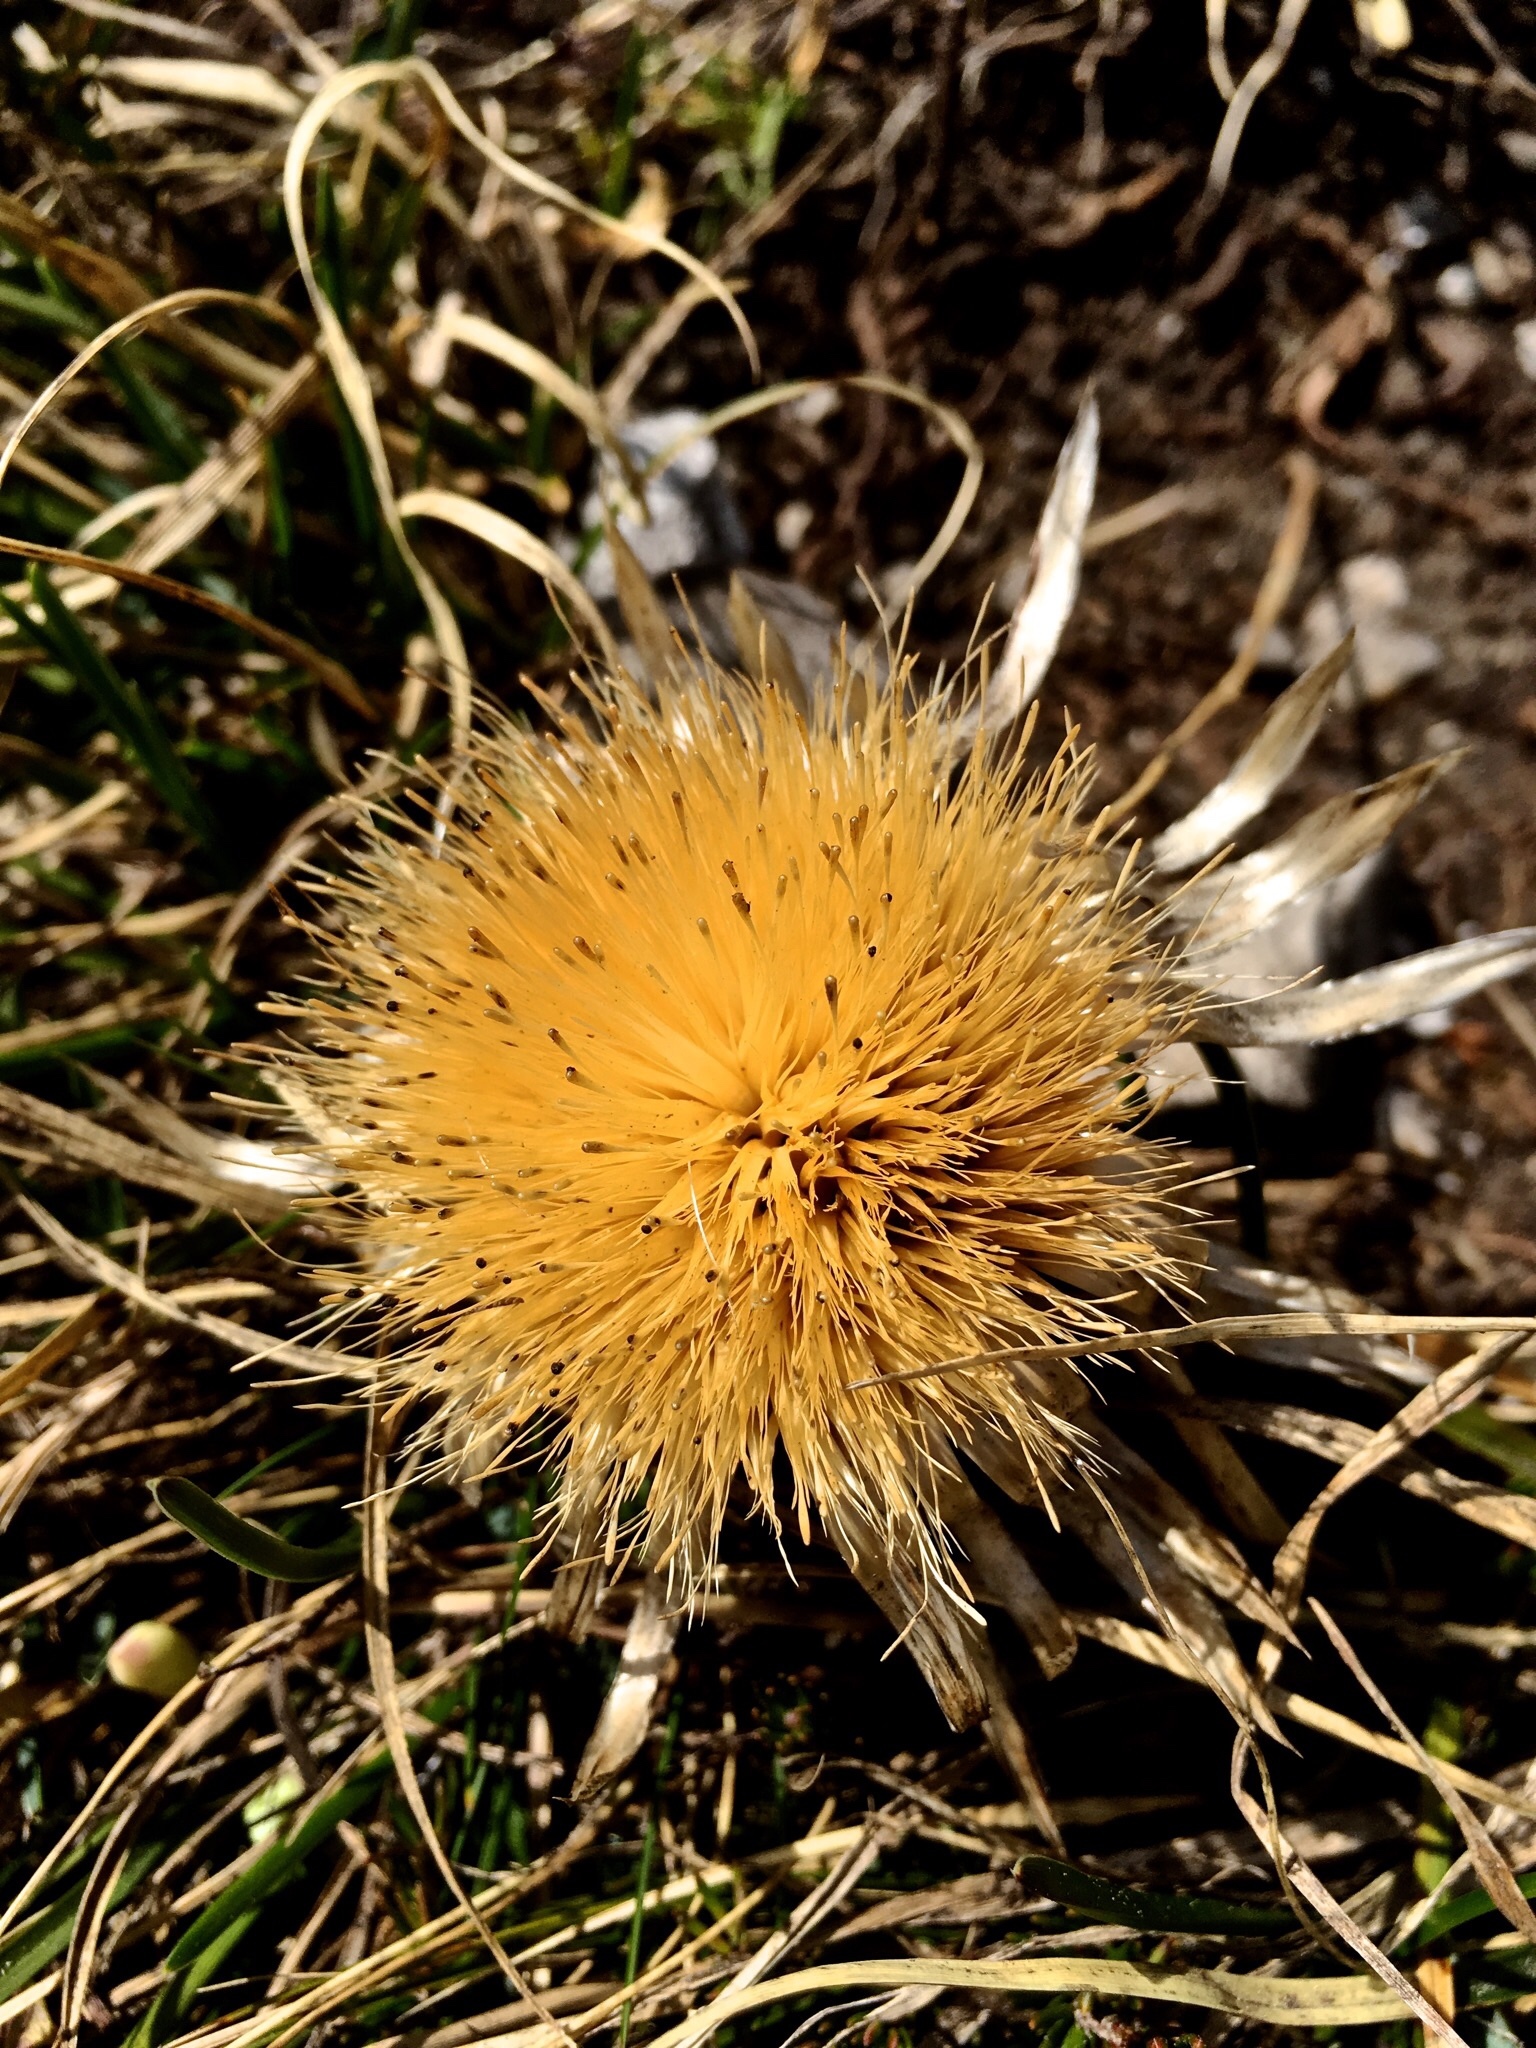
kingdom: Plantae
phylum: Tracheophyta
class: Magnoliopsida
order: Asterales
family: Asteraceae
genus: Carlina
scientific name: Carlina acaulis
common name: Stemless carline thistle
